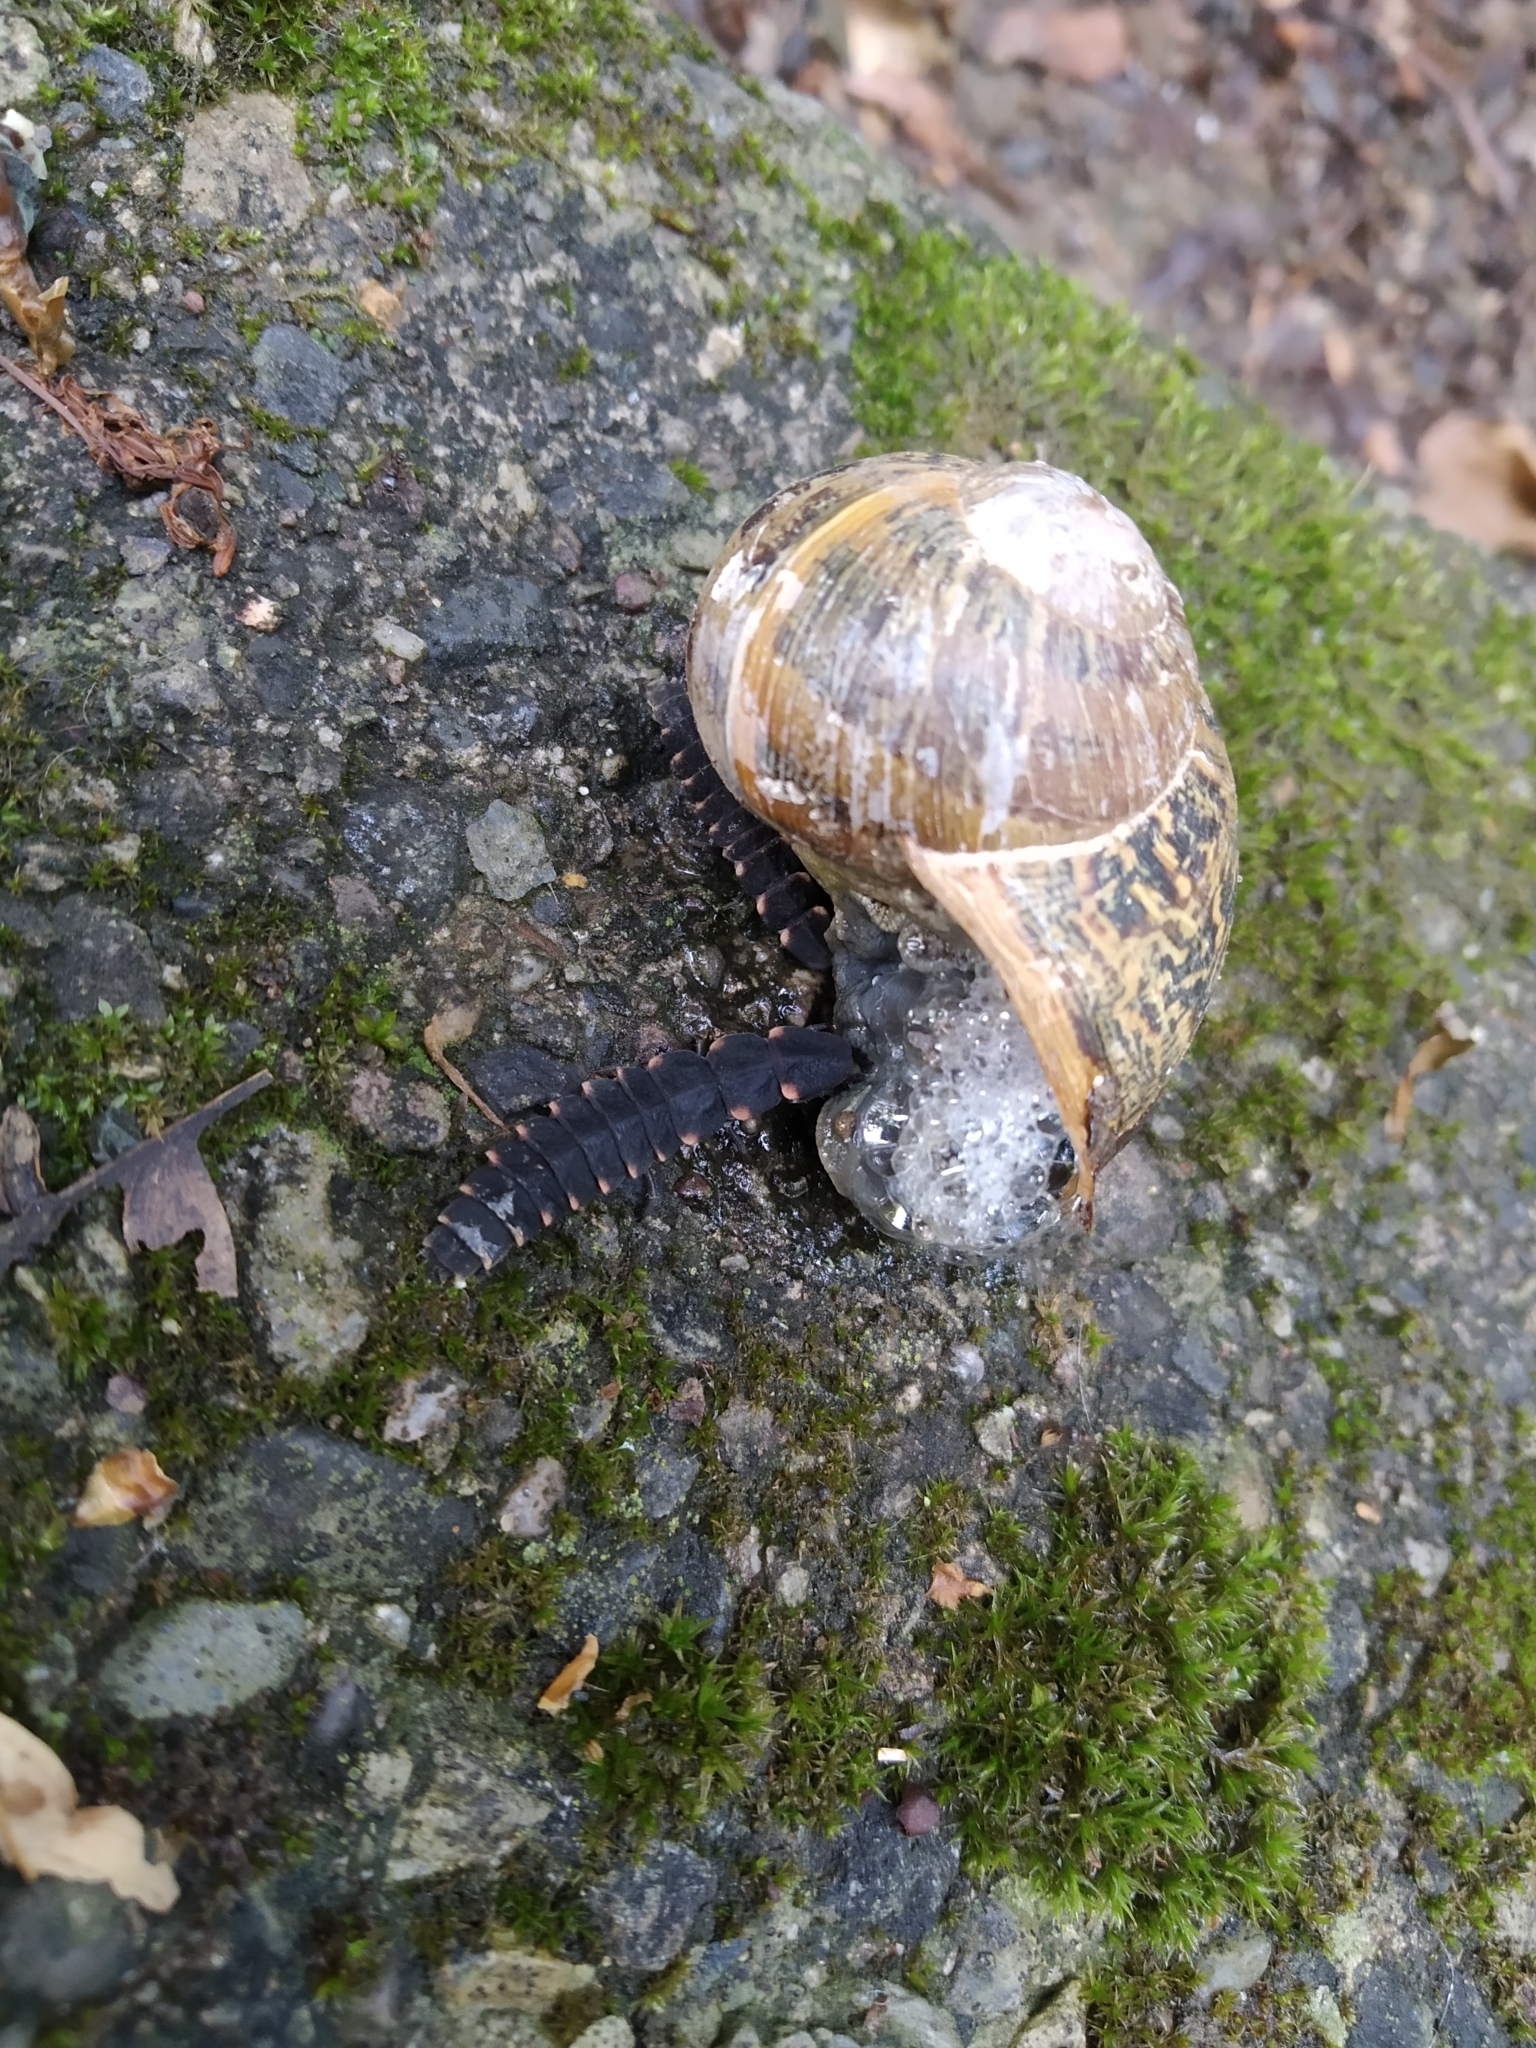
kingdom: Animalia
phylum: Arthropoda
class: Insecta
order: Coleoptera
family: Lampyridae
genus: Lampyris
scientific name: Lampyris noctiluca
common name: Glow-worm
